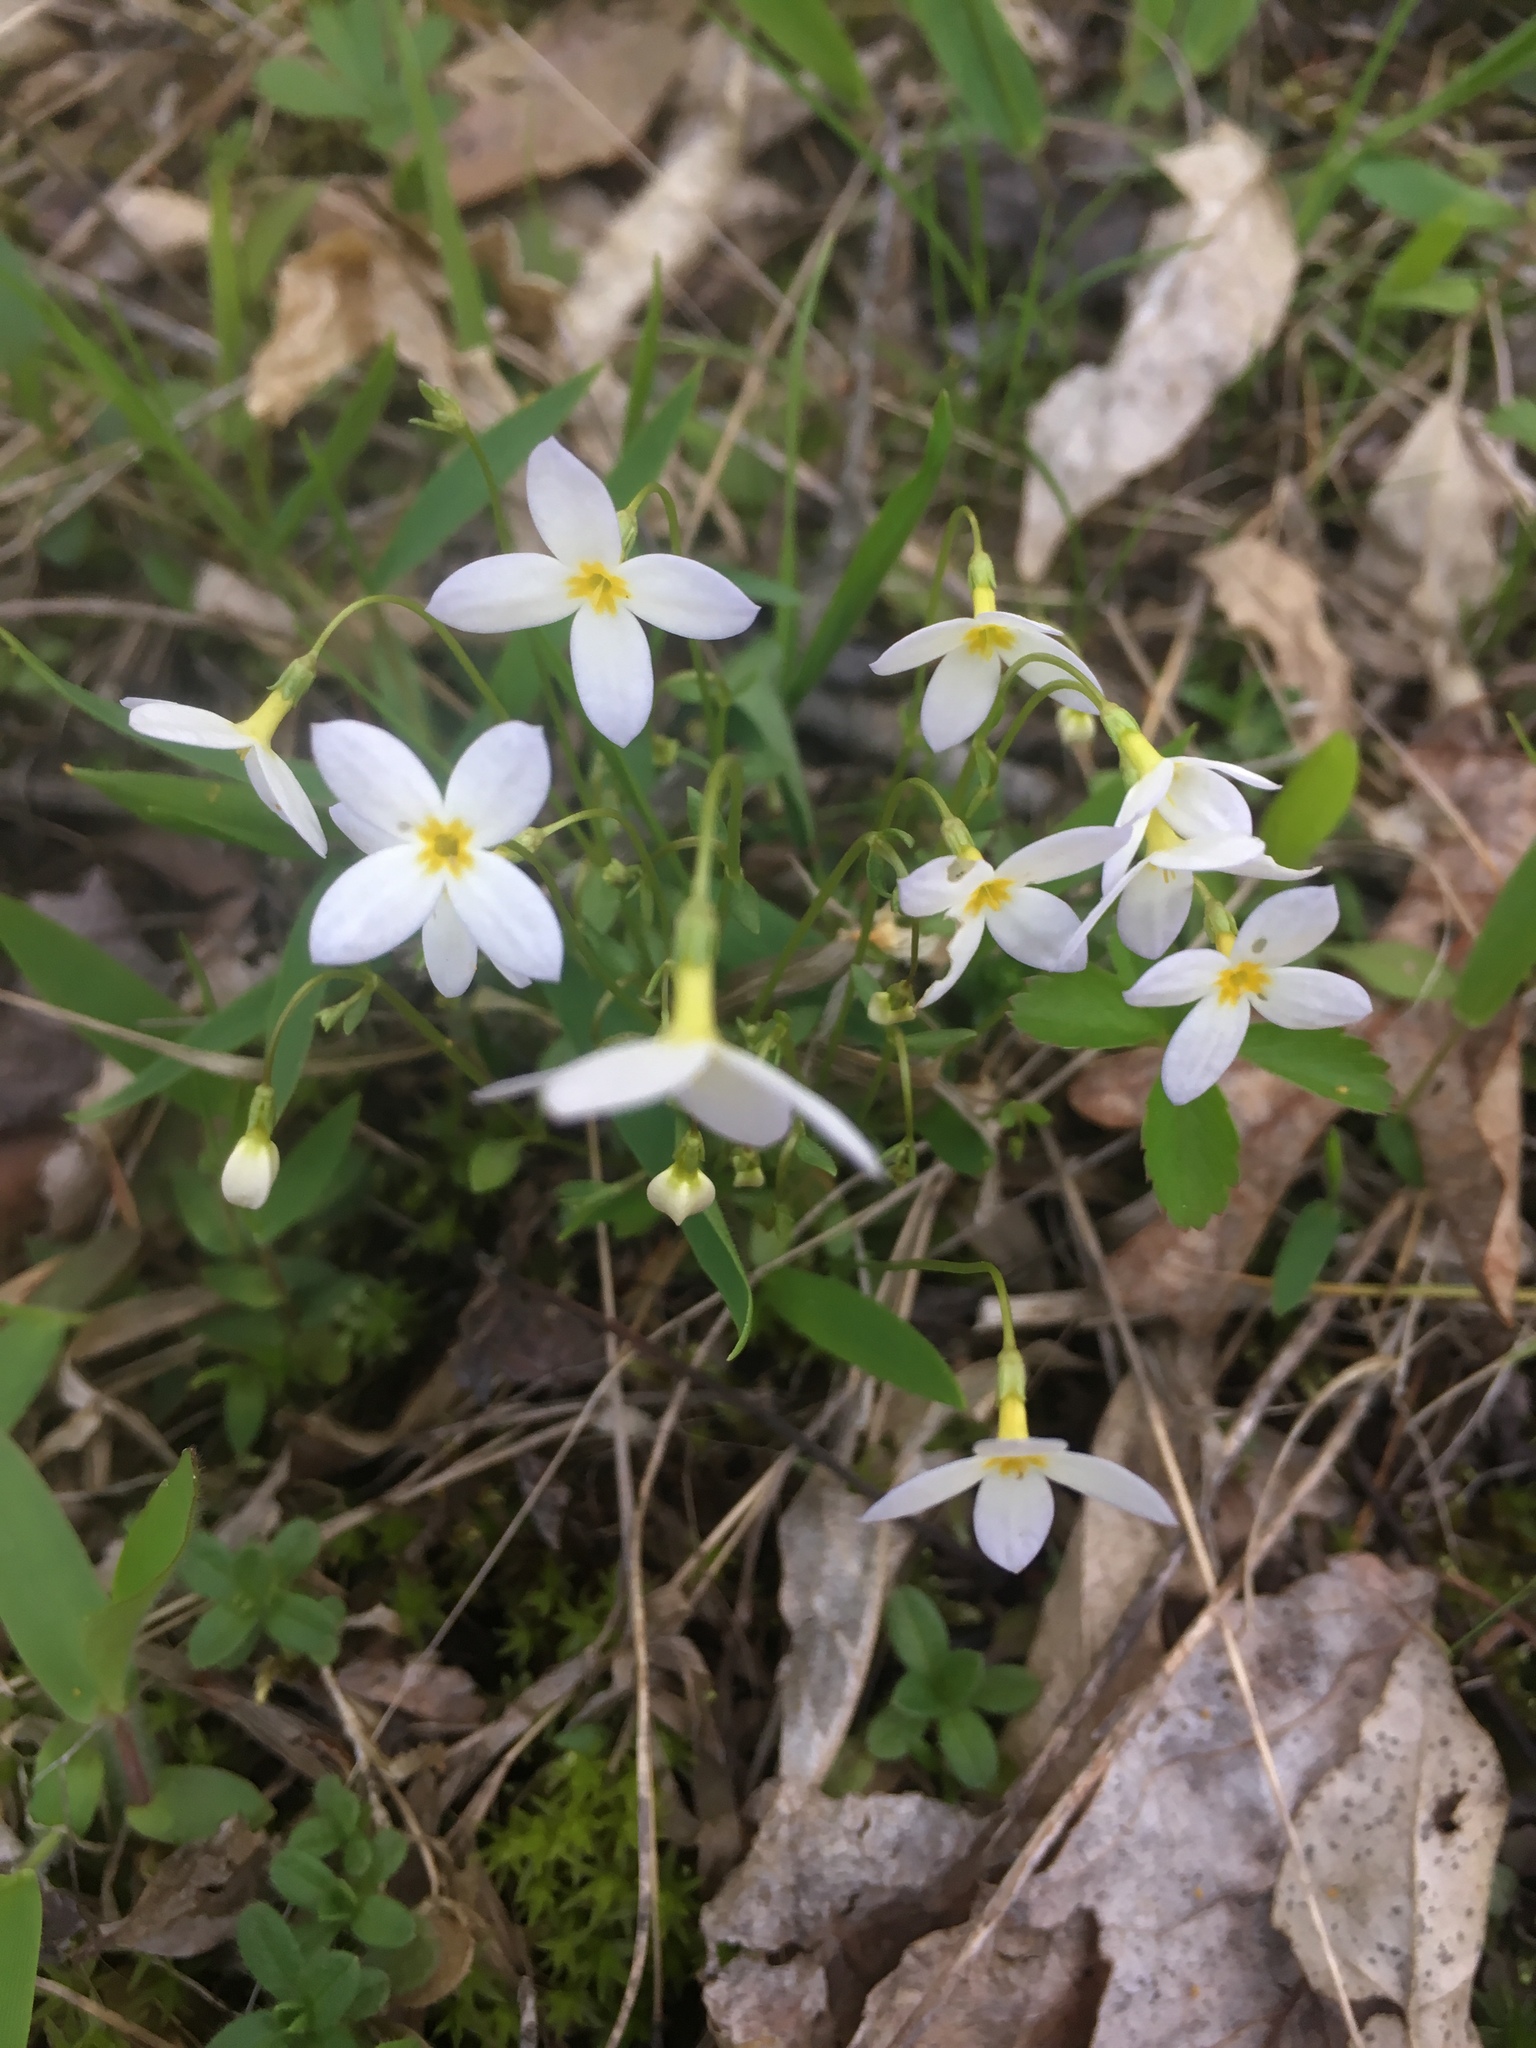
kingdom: Plantae
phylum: Tracheophyta
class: Magnoliopsida
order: Gentianales
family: Rubiaceae
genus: Houstonia
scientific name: Houstonia caerulea
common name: Bluets
